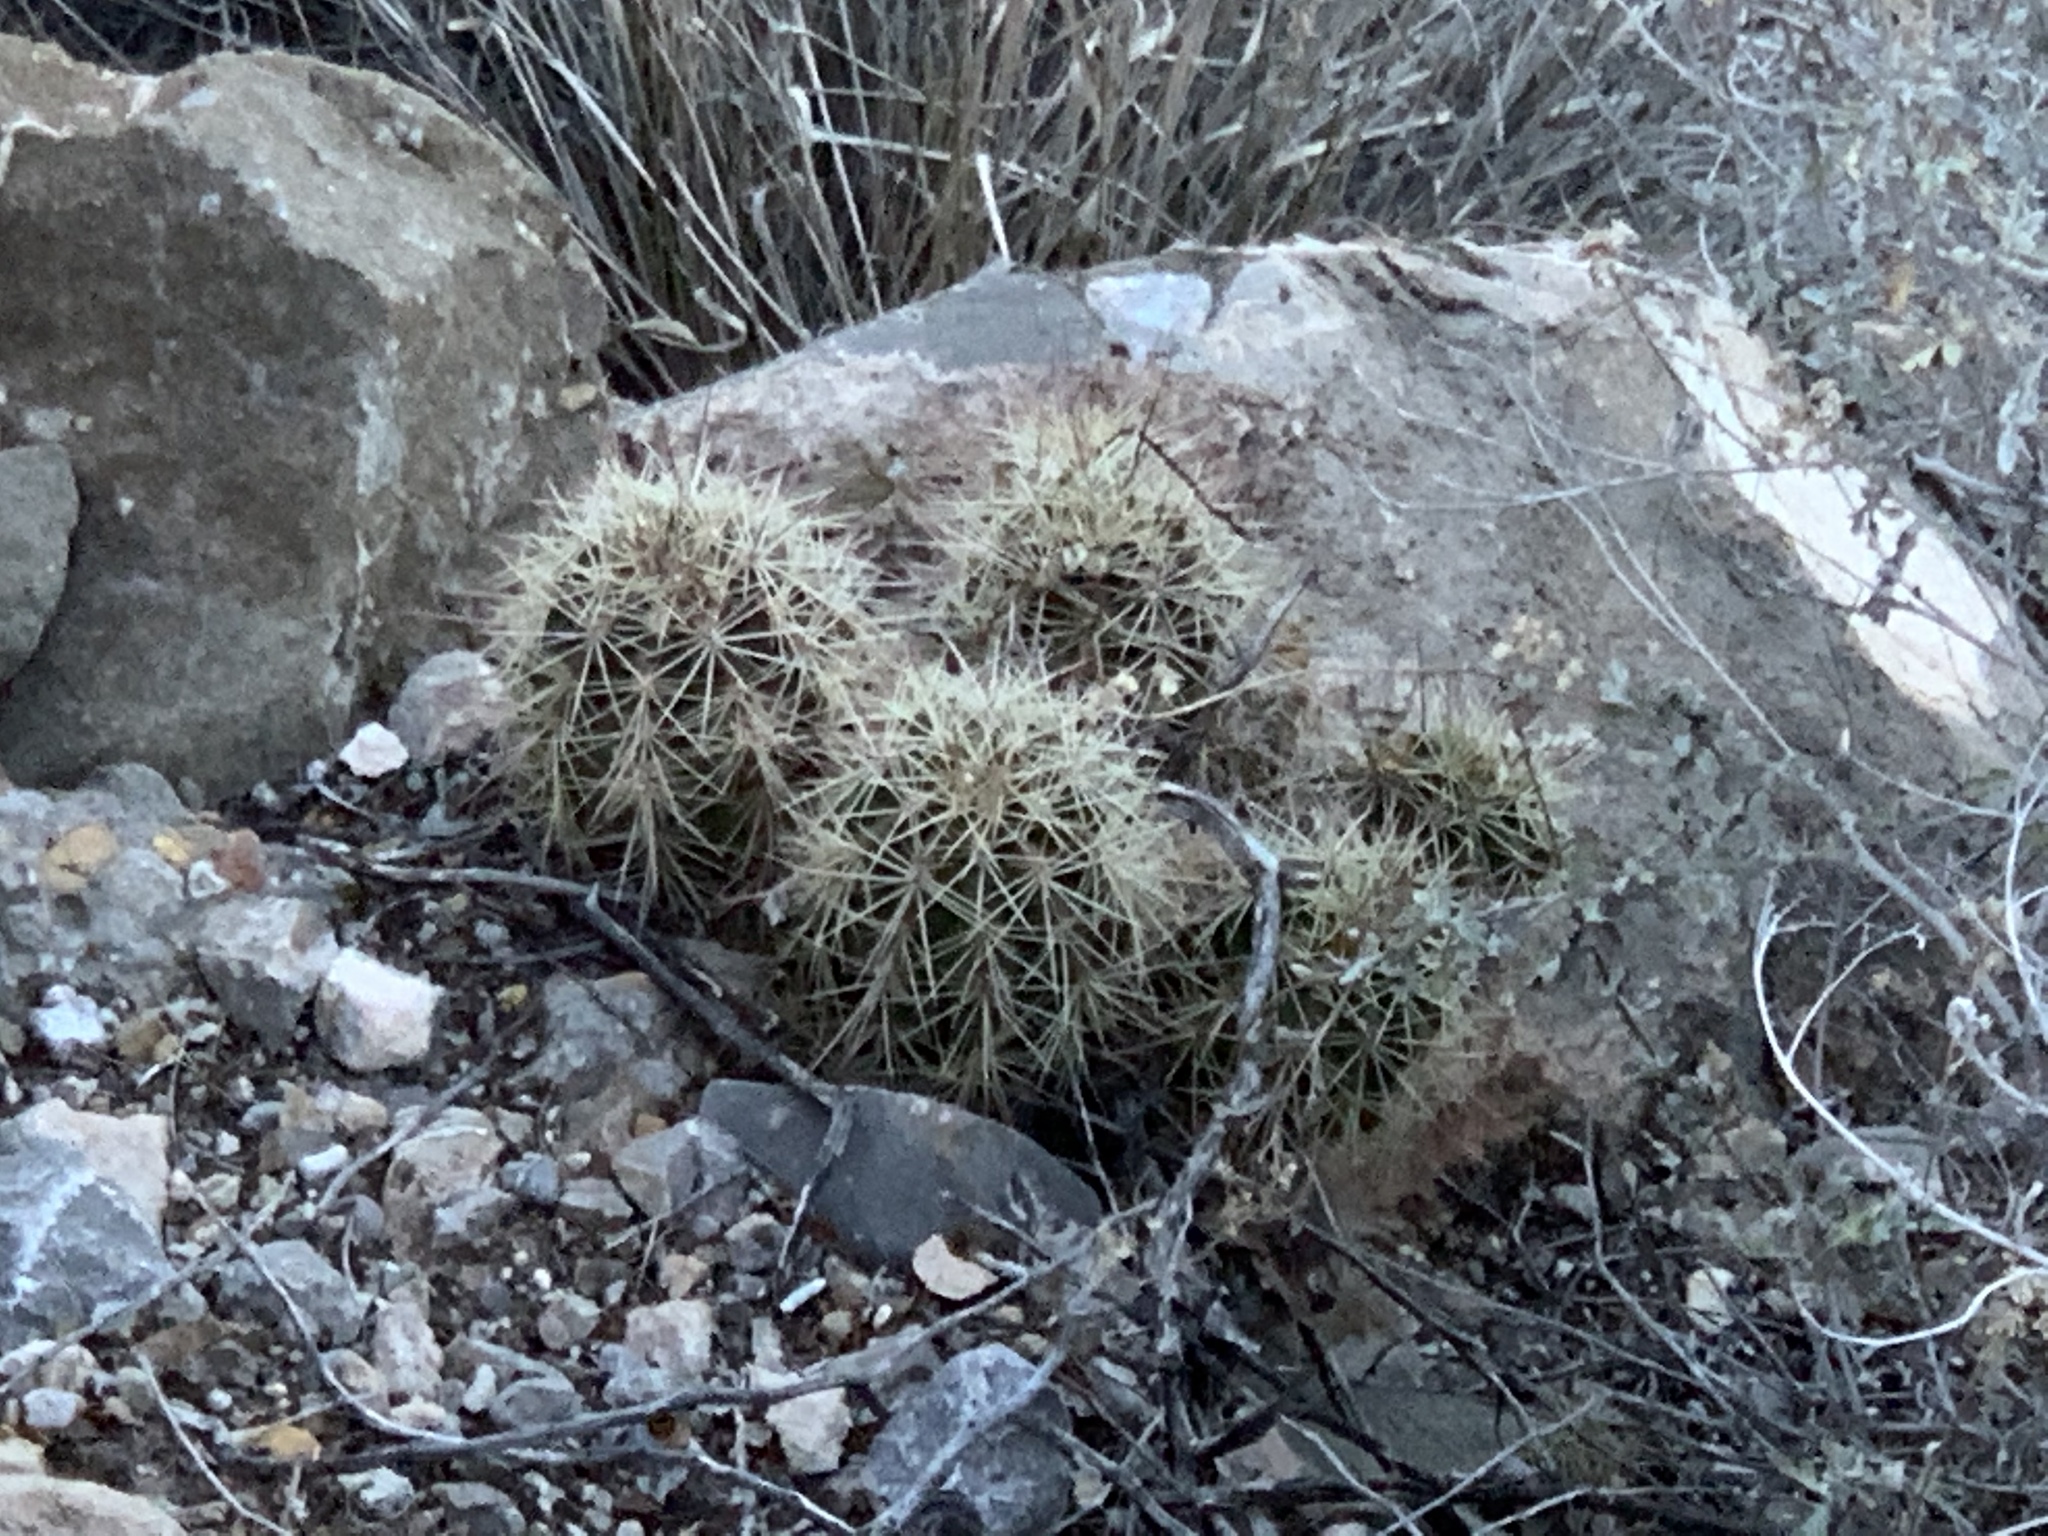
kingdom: Plantae
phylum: Tracheophyta
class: Magnoliopsida
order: Caryophyllales
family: Cactaceae
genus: Echinocereus
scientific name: Echinocereus coccineus
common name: Scarlet hedgehog cactus
